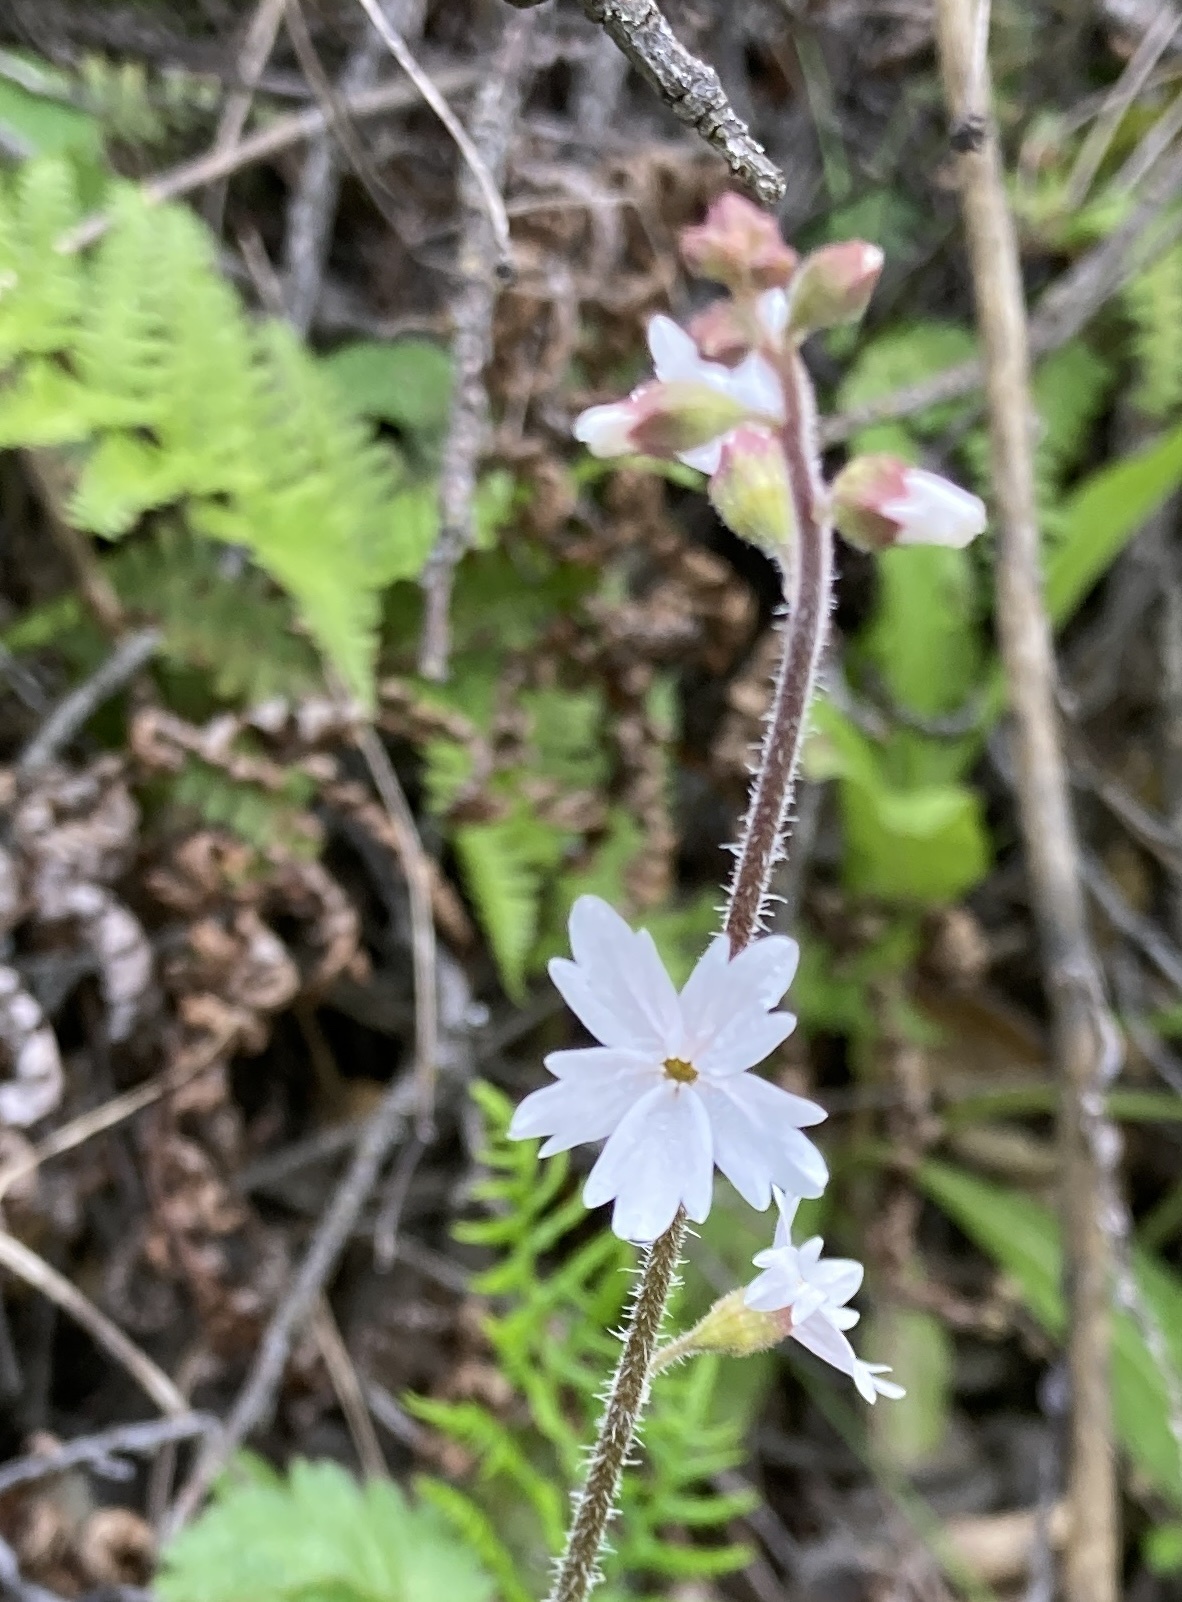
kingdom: Plantae
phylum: Tracheophyta
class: Magnoliopsida
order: Saxifragales
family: Saxifragaceae
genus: Lithophragma
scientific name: Lithophragma affine
